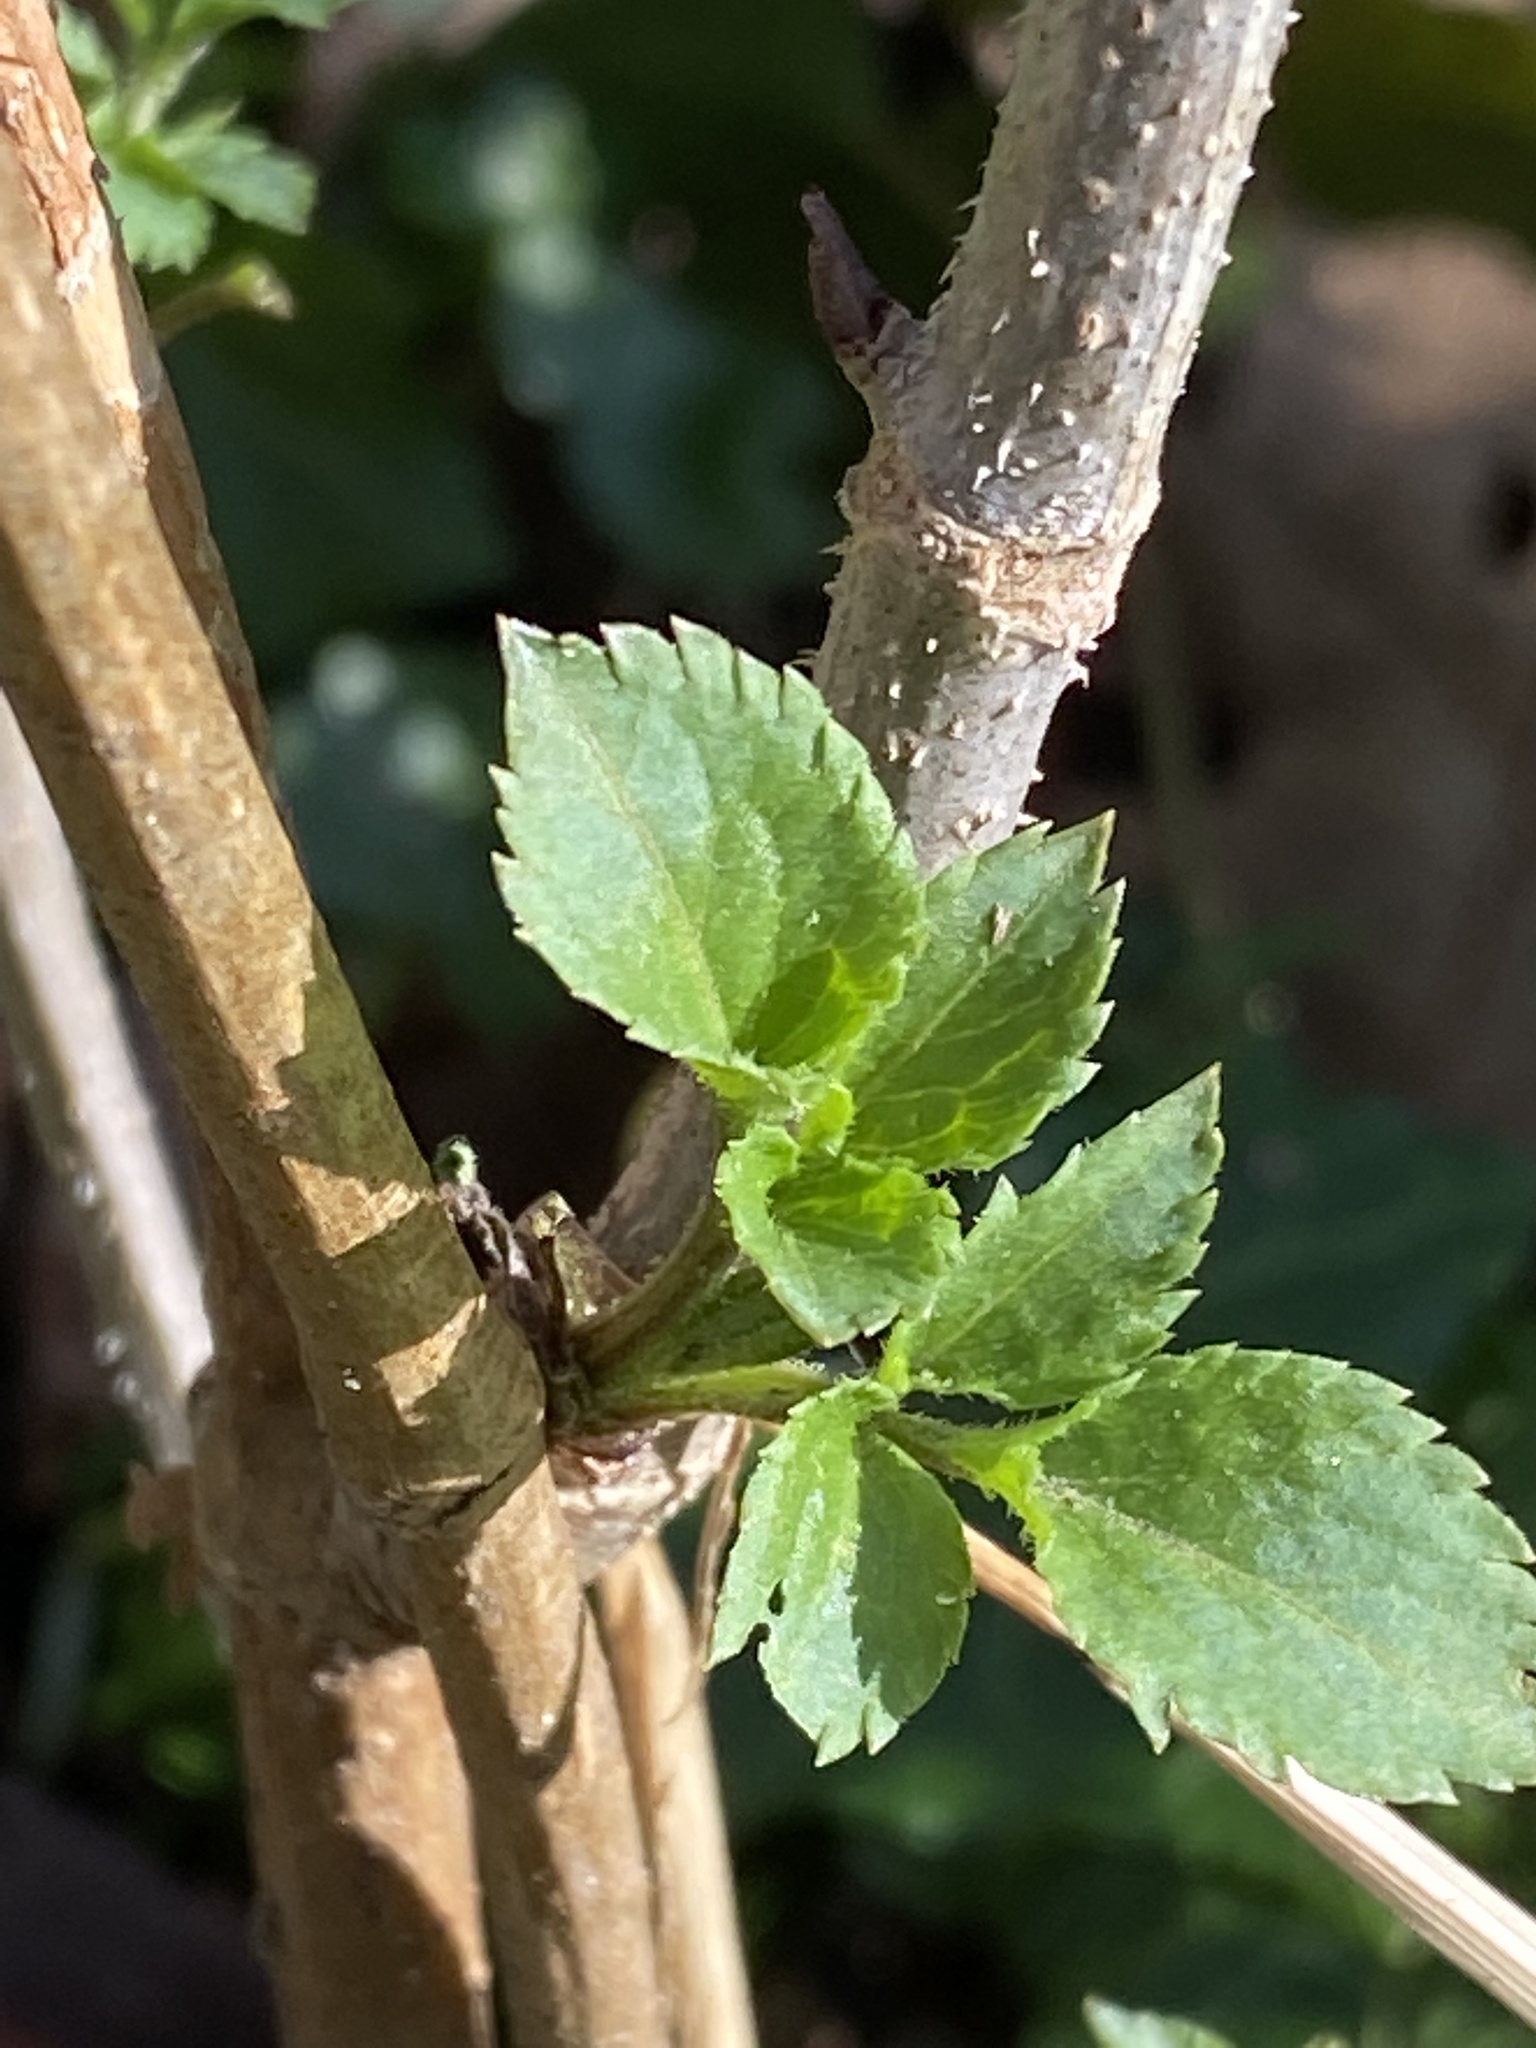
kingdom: Plantae
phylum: Tracheophyta
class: Magnoliopsida
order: Dipsacales
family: Viburnaceae
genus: Sambucus
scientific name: Sambucus nigra
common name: Elder
